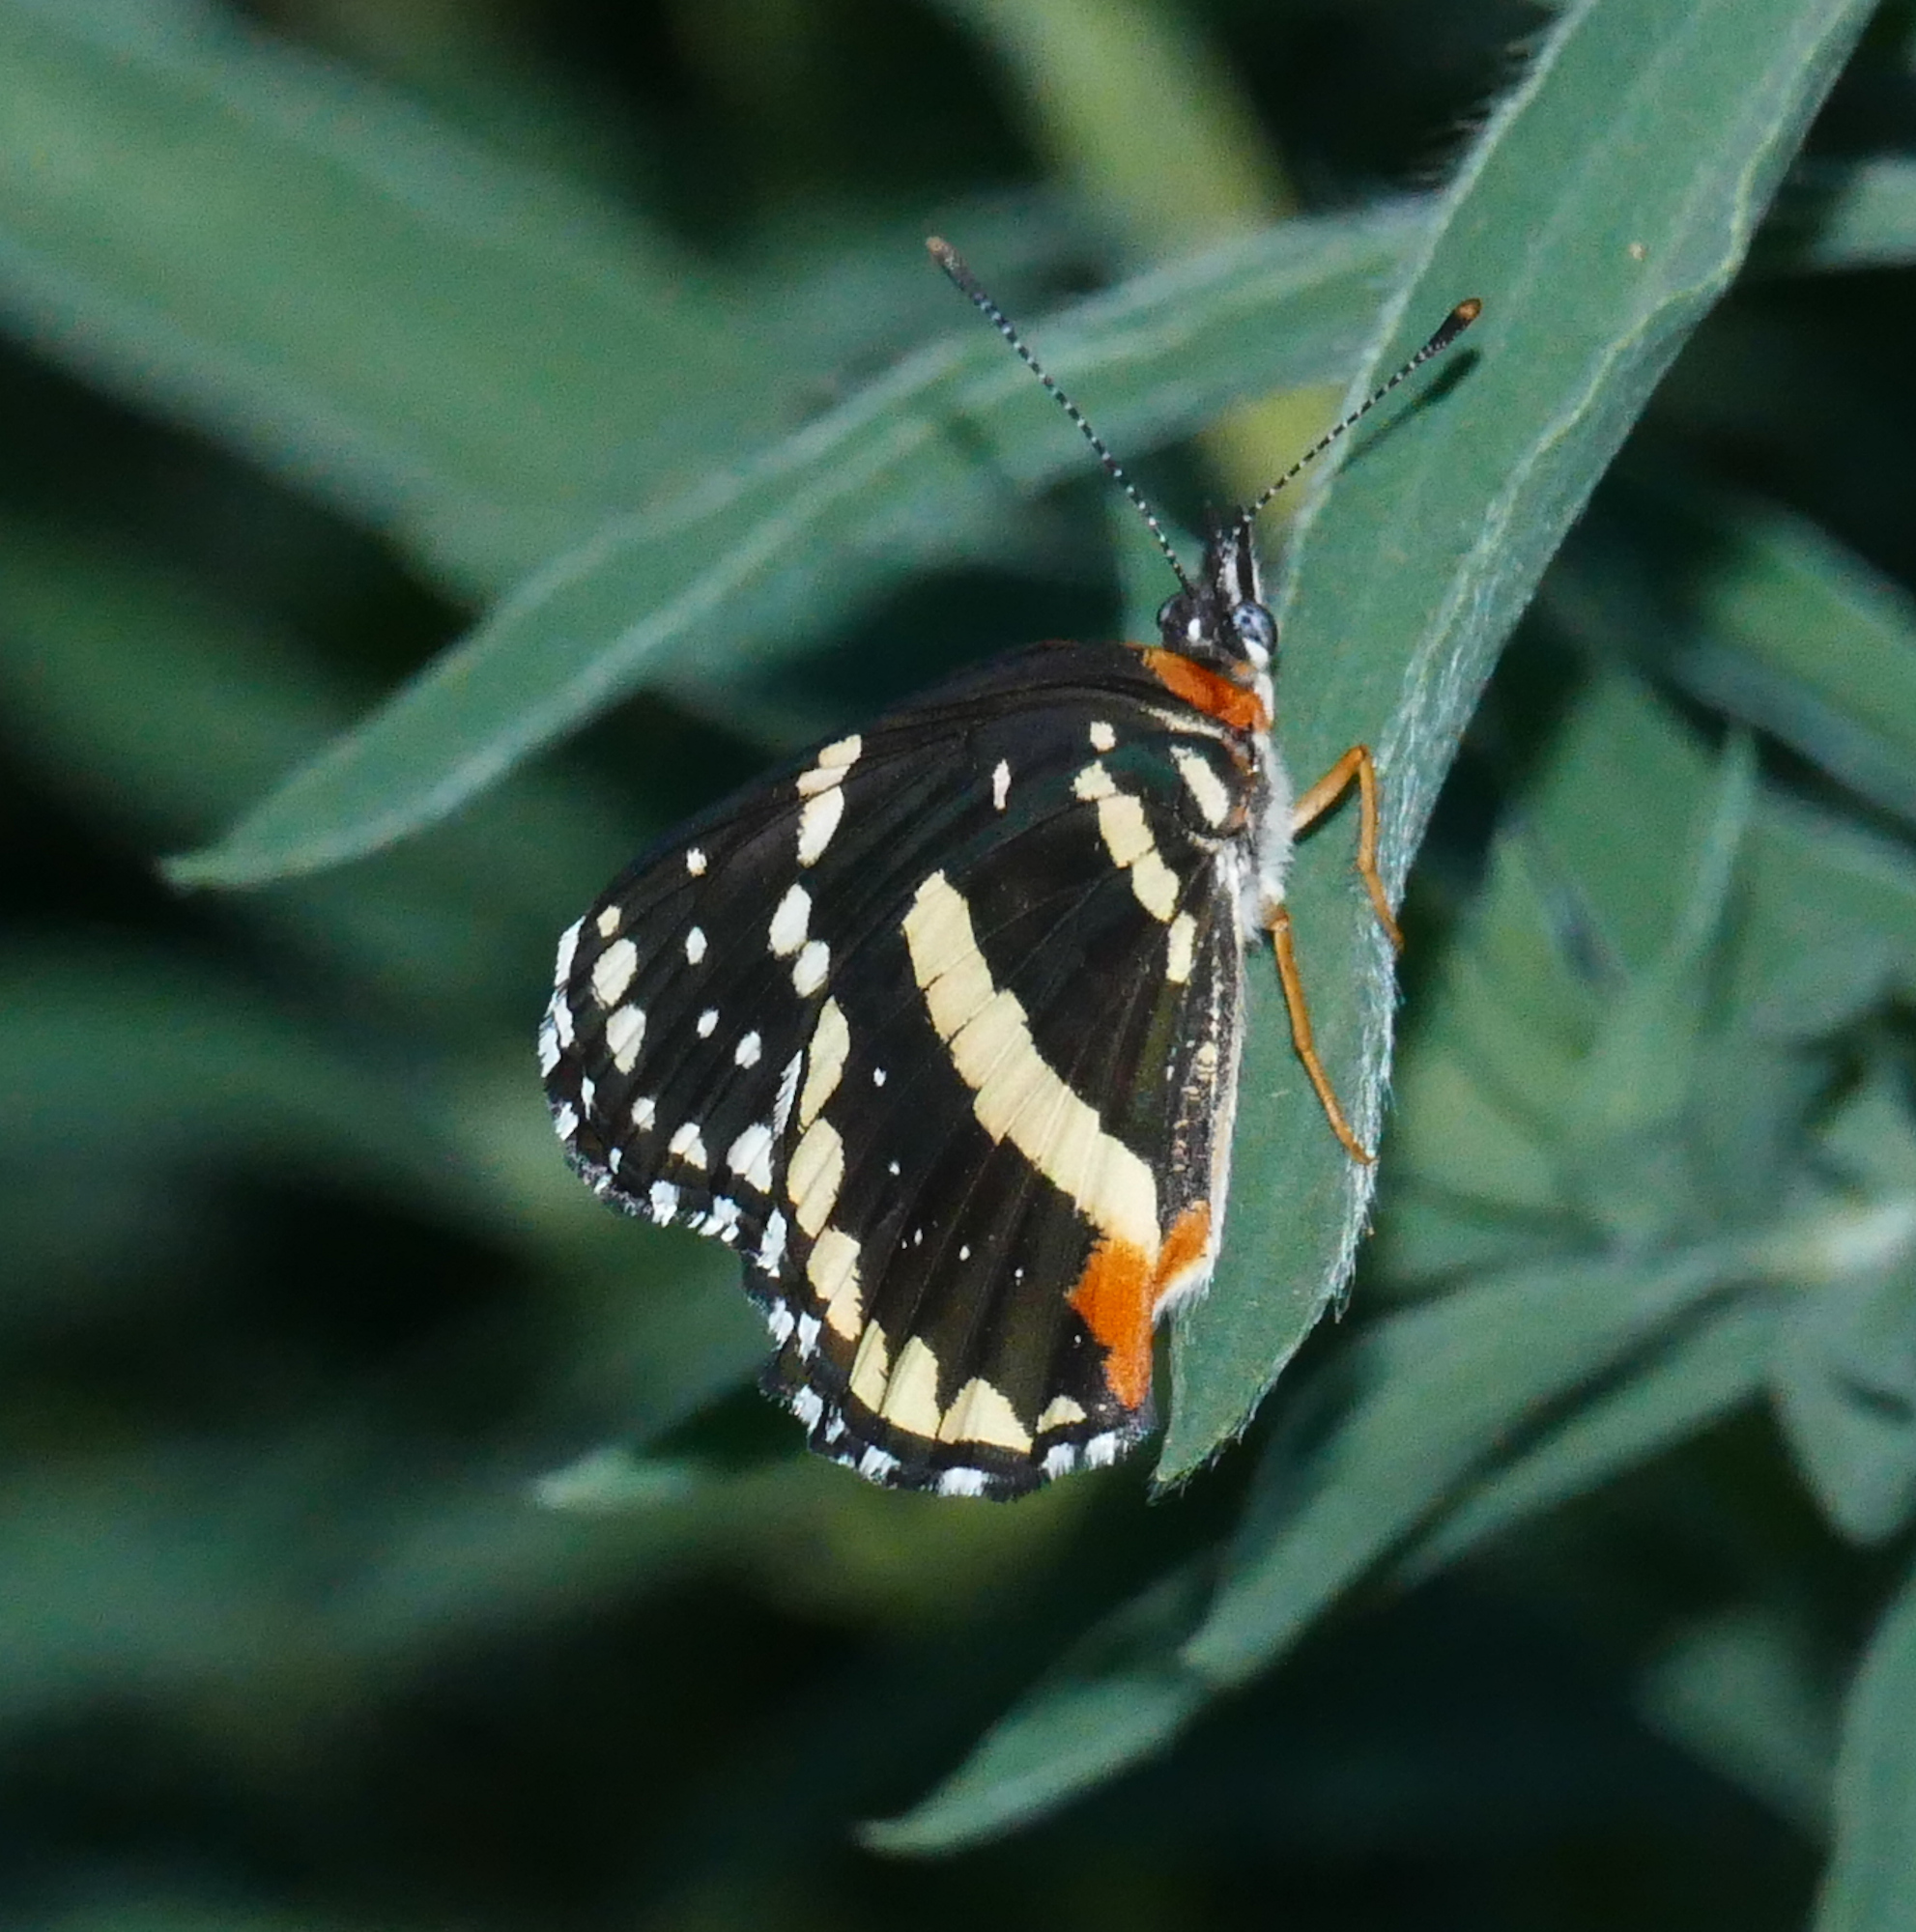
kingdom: Animalia
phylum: Arthropoda
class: Insecta
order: Lepidoptera
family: Nymphalidae
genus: Chlosyne
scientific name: Chlosyne lacinia
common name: Bordered patch
